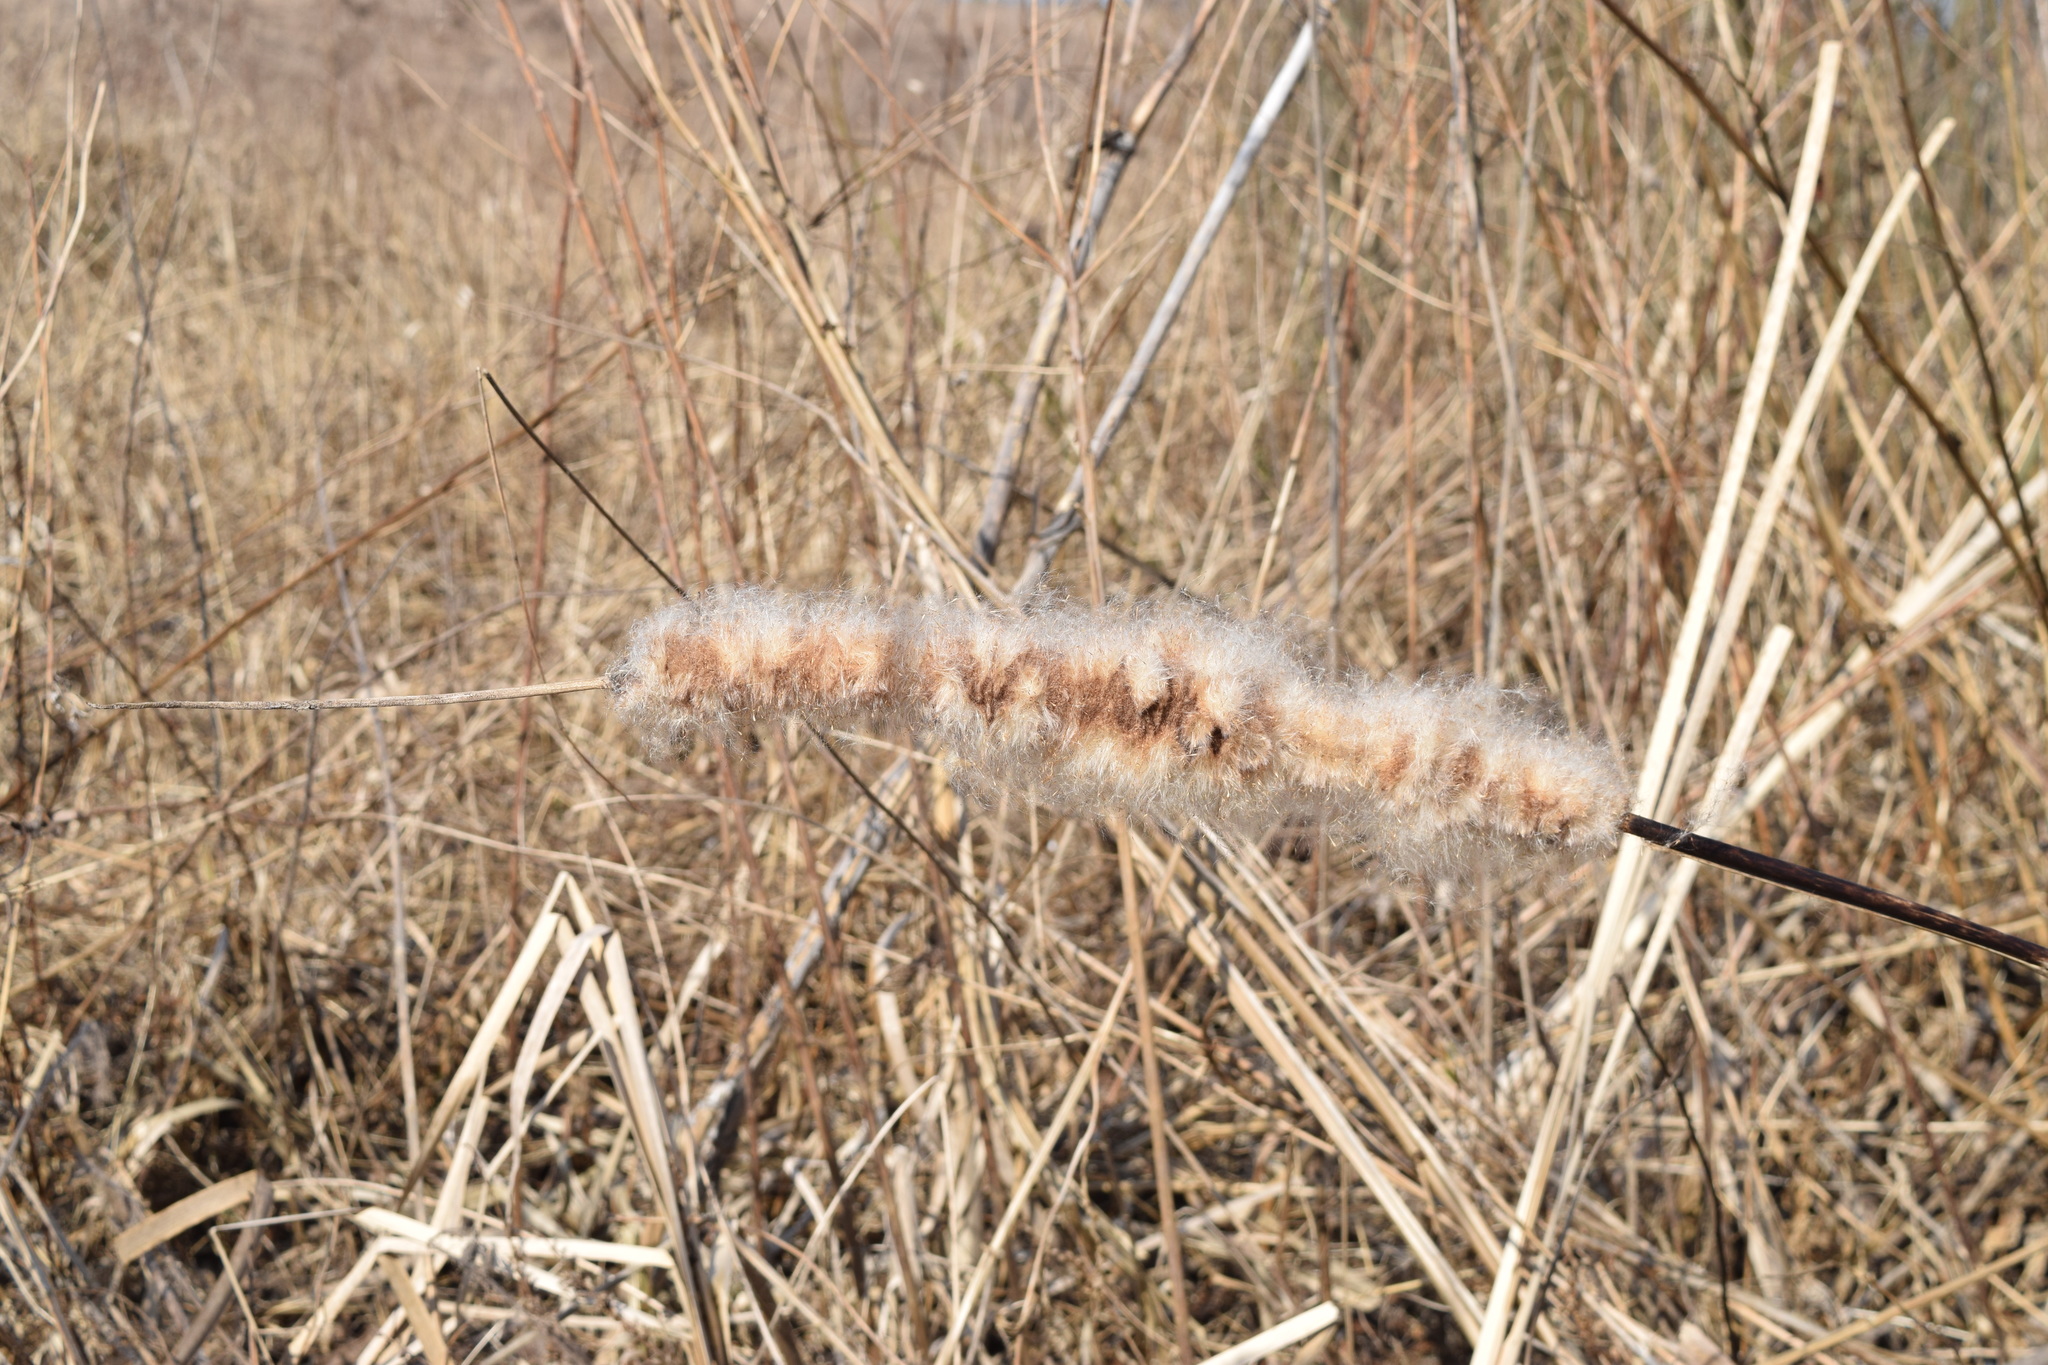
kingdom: Plantae
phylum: Tracheophyta
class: Liliopsida
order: Poales
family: Typhaceae
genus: Typha
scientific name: Typha latifolia
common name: Broadleaf cattail
